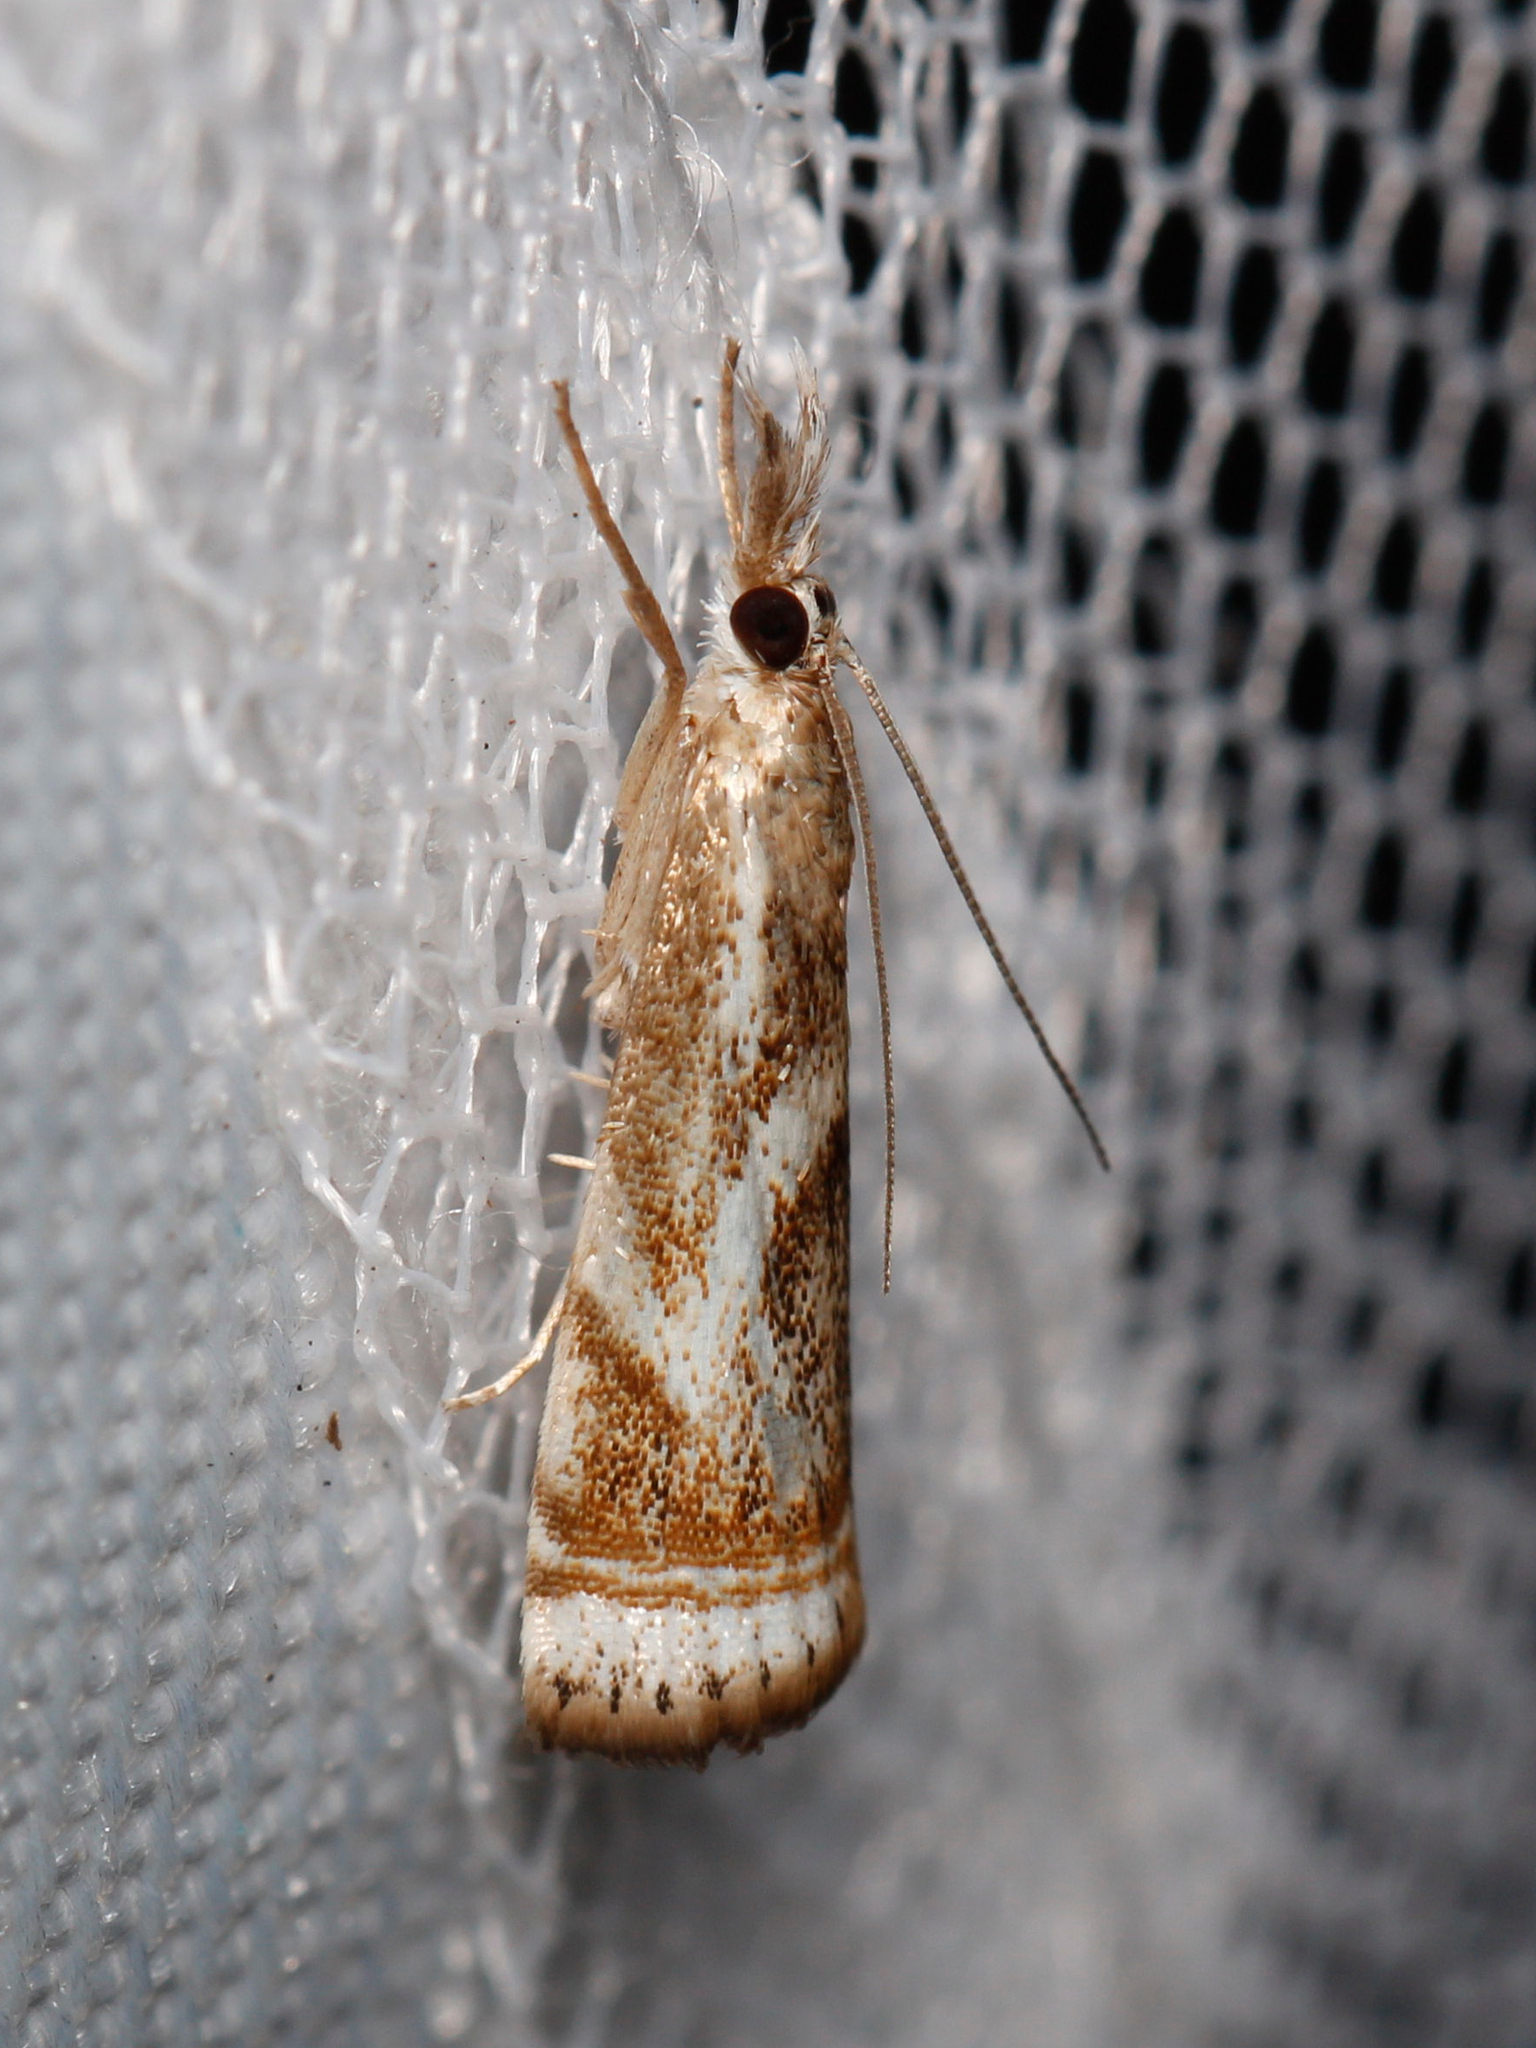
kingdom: Animalia
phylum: Arthropoda
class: Insecta
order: Lepidoptera
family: Crambidae
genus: Microcrambus
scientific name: Microcrambus elegans
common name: Elegant grass-veneer
